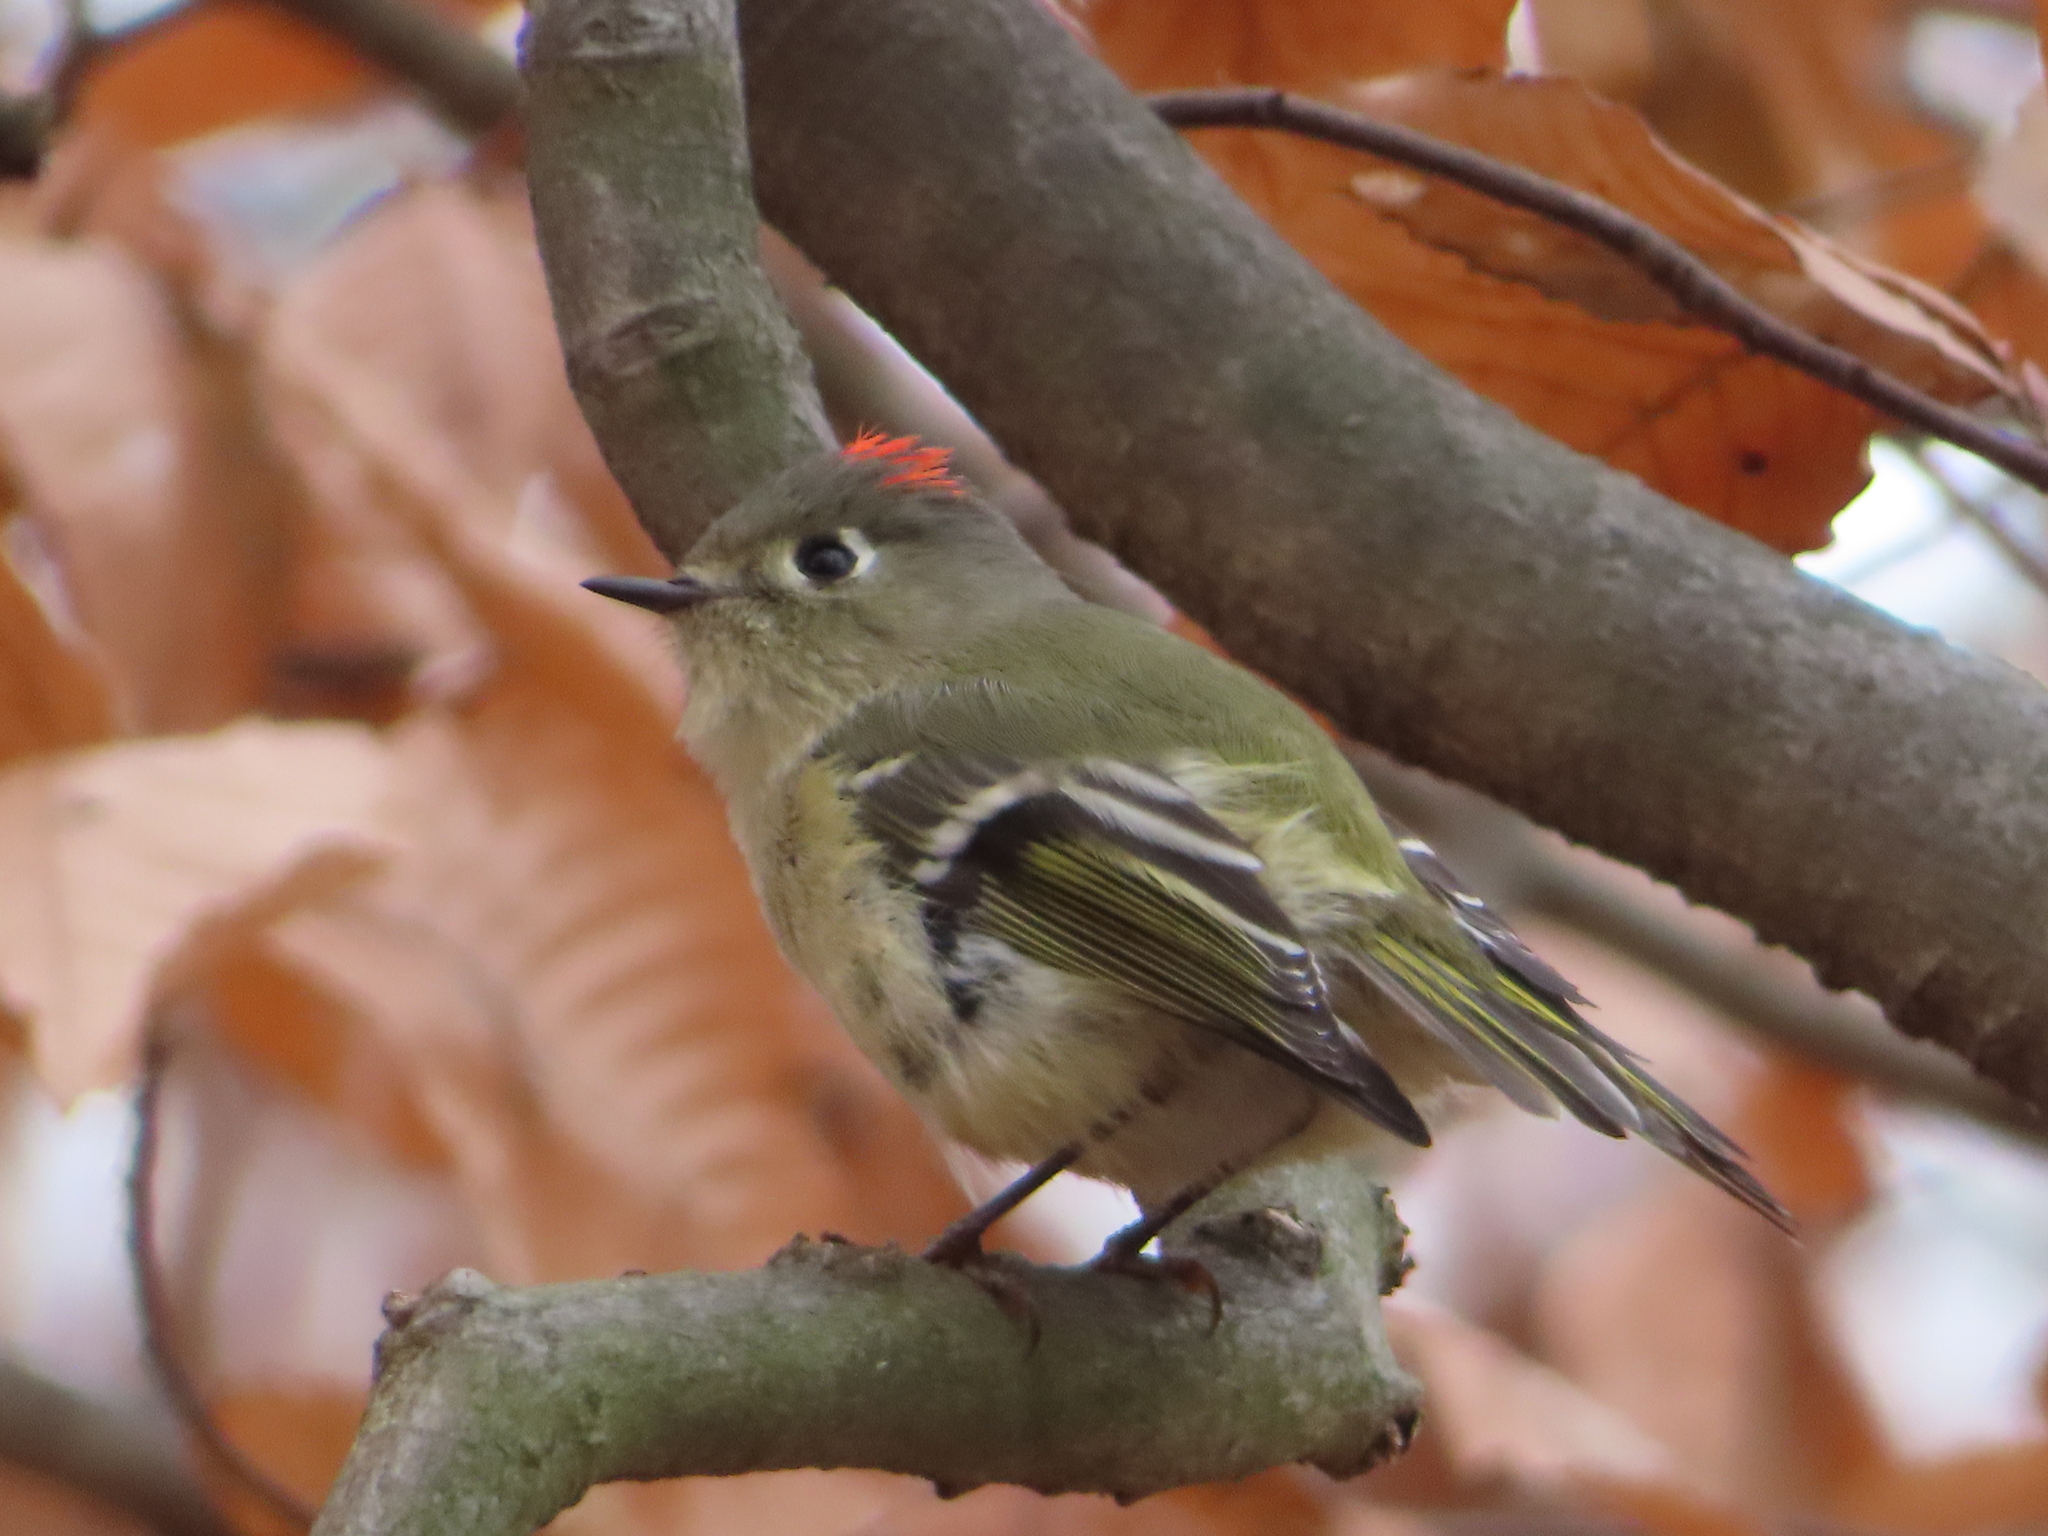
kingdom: Animalia
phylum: Chordata
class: Aves
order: Passeriformes
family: Regulidae
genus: Regulus
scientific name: Regulus calendula
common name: Ruby-crowned kinglet
